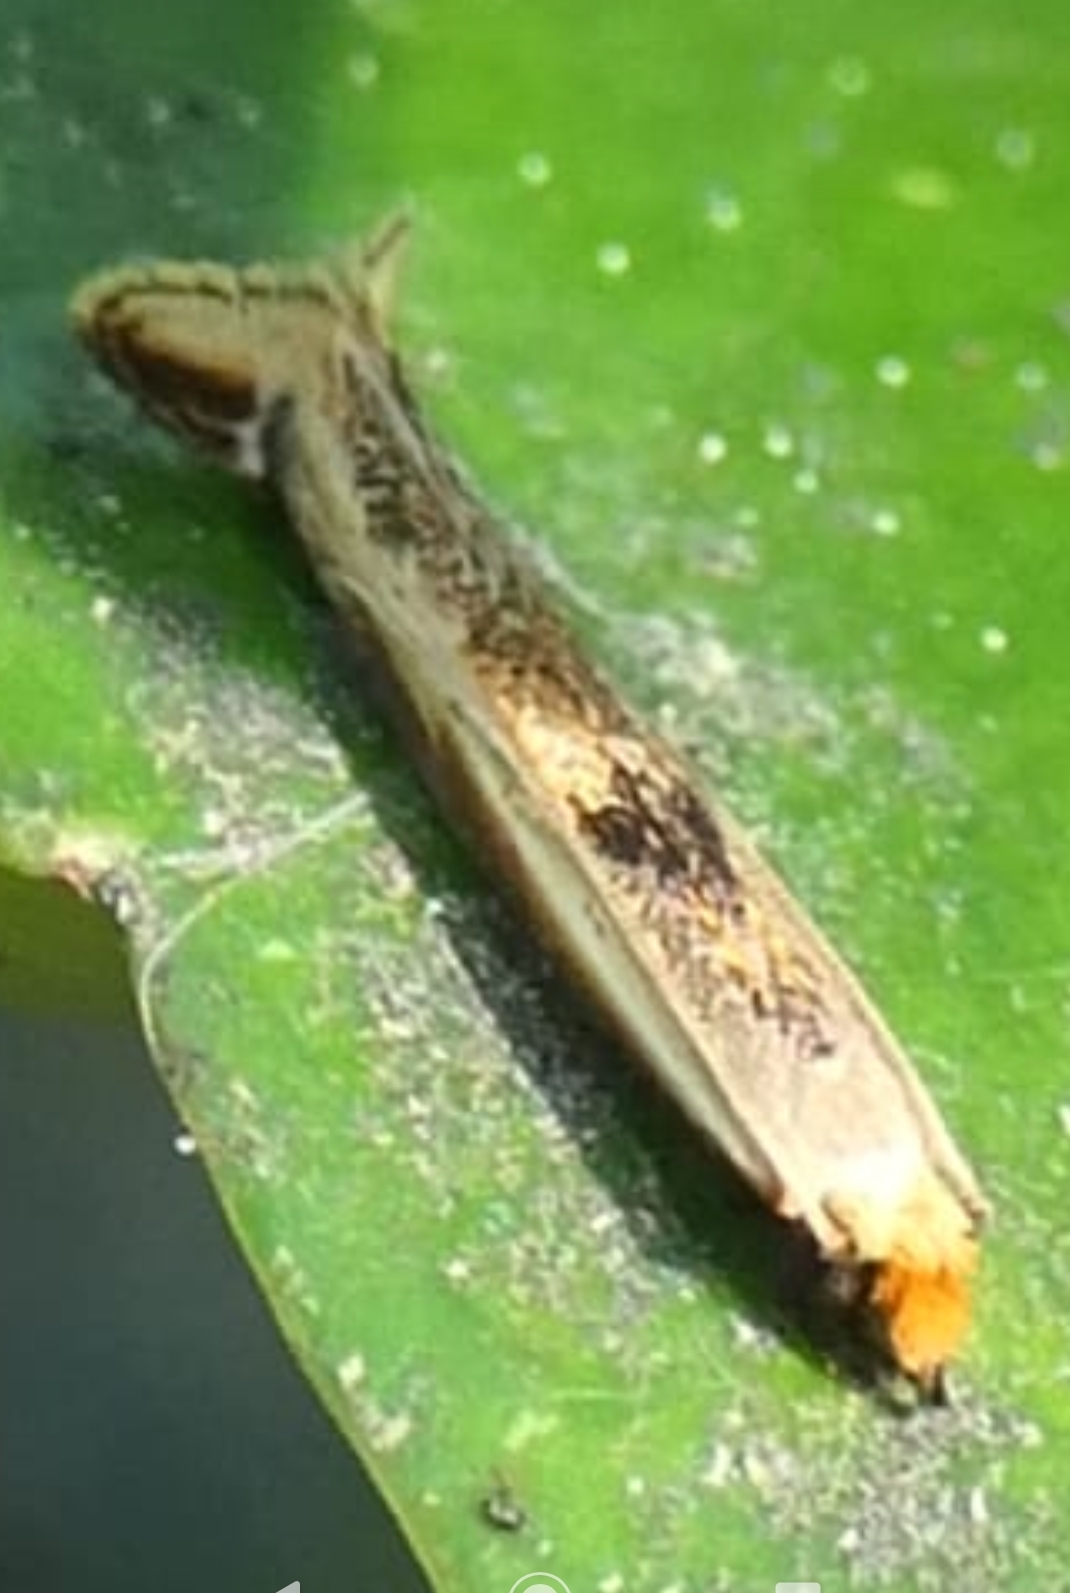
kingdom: Animalia
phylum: Arthropoda
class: Insecta
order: Lepidoptera
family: Tineidae
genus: Erechthias
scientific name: Erechthias charadrota
